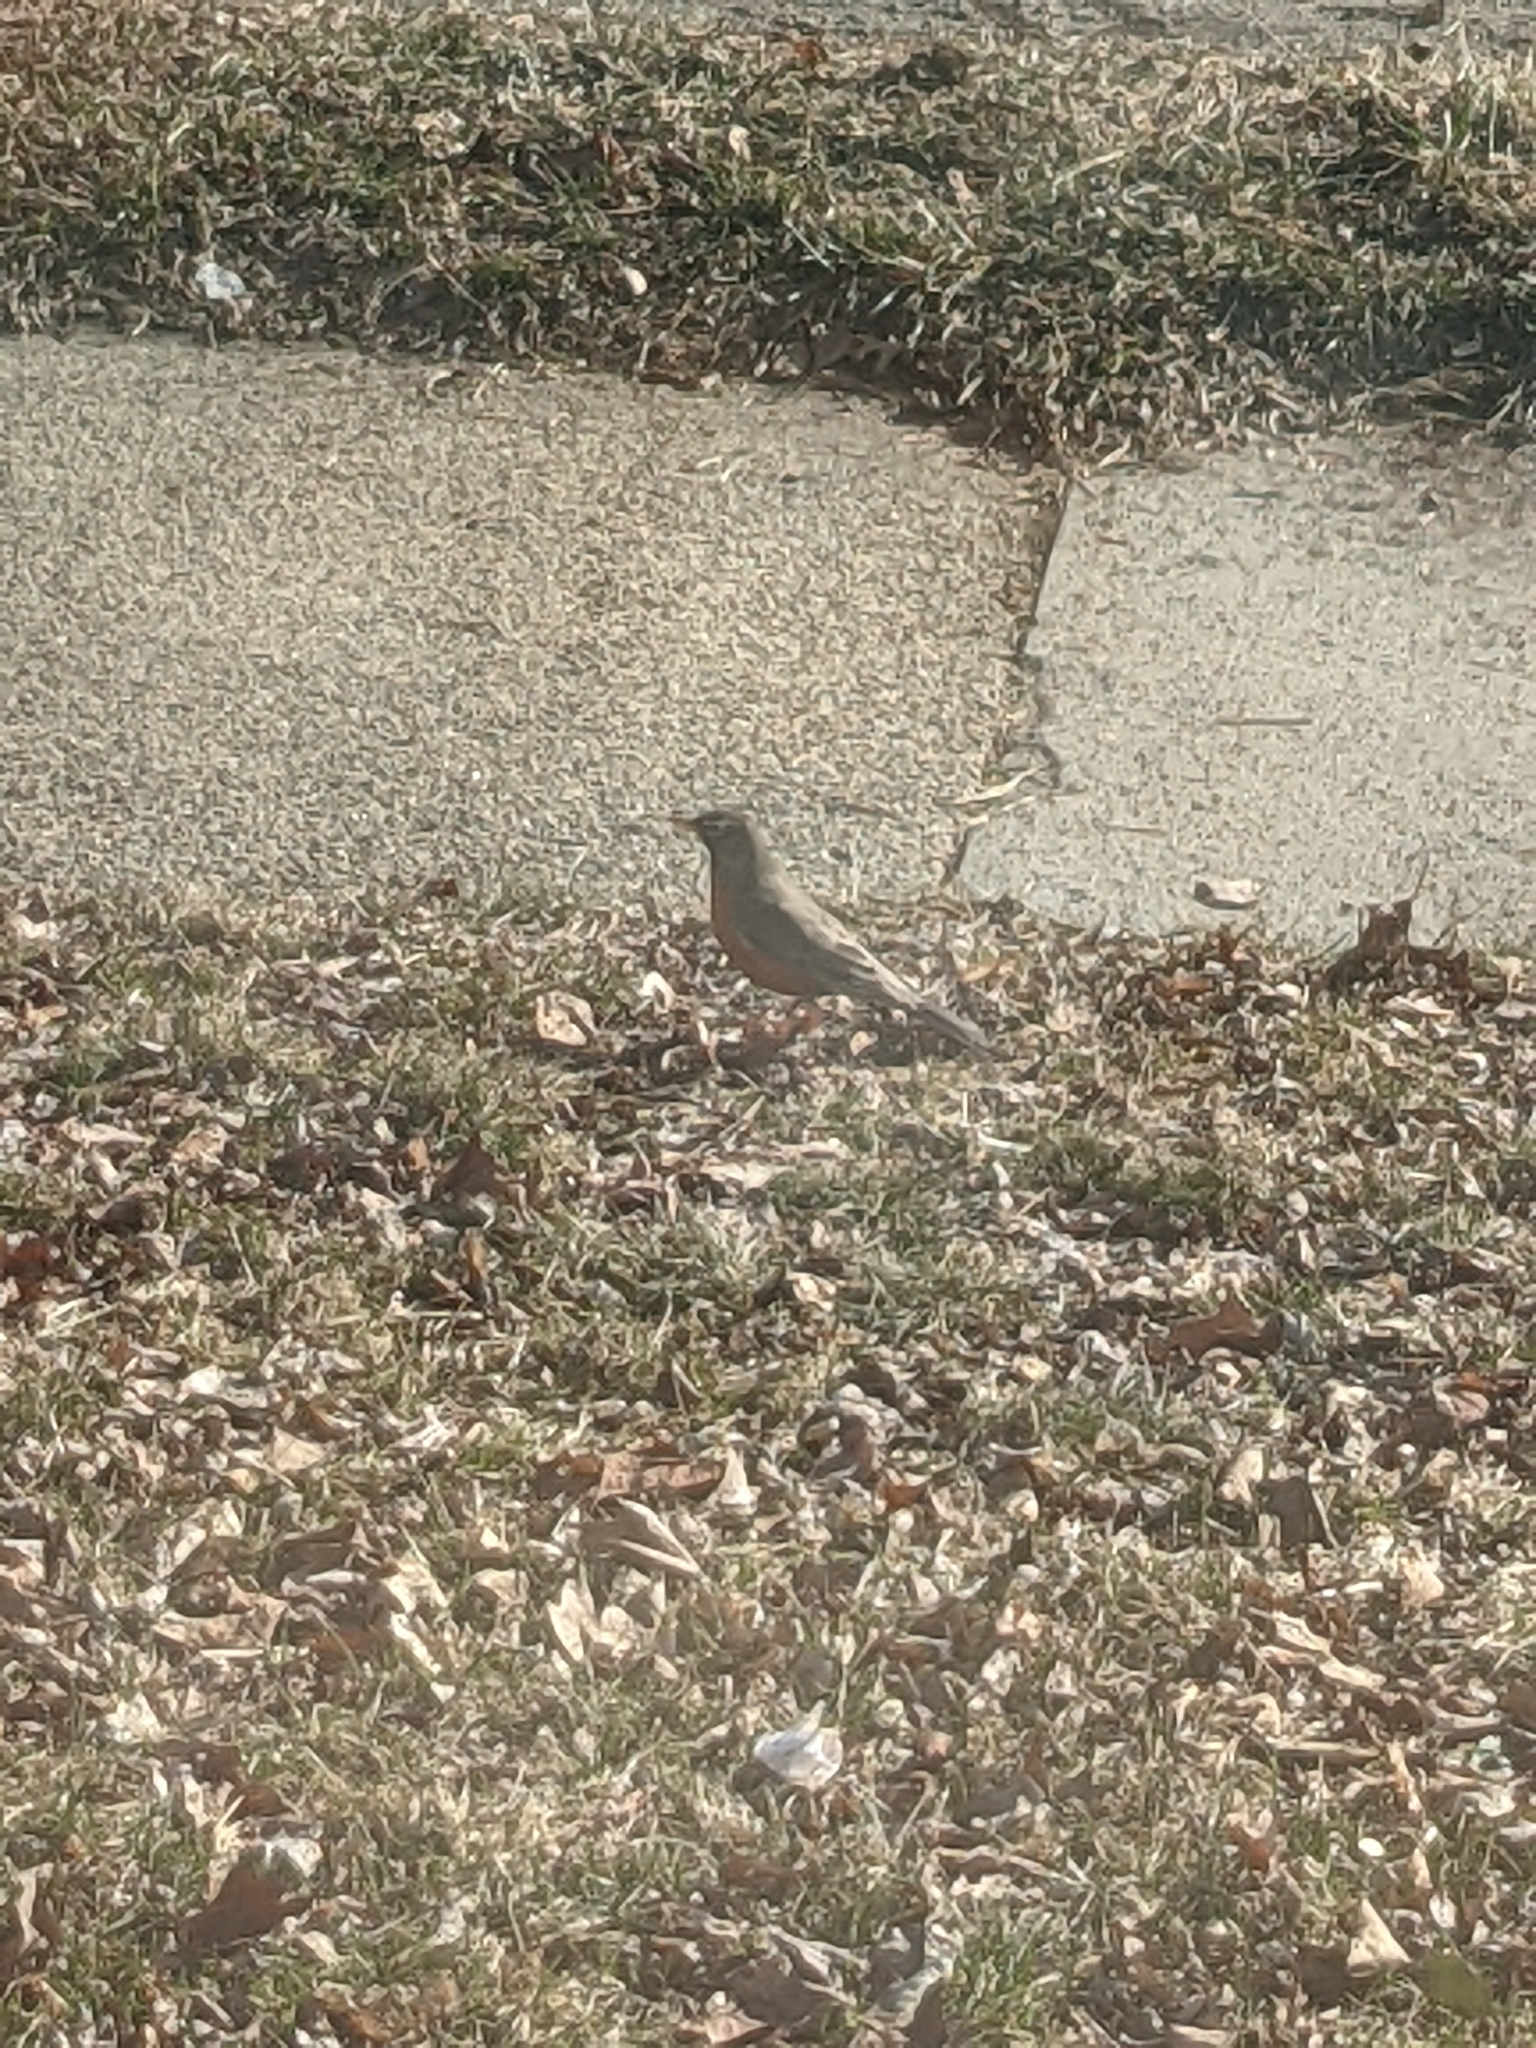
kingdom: Animalia
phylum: Chordata
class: Aves
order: Passeriformes
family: Turdidae
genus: Turdus
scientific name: Turdus migratorius
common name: American robin
